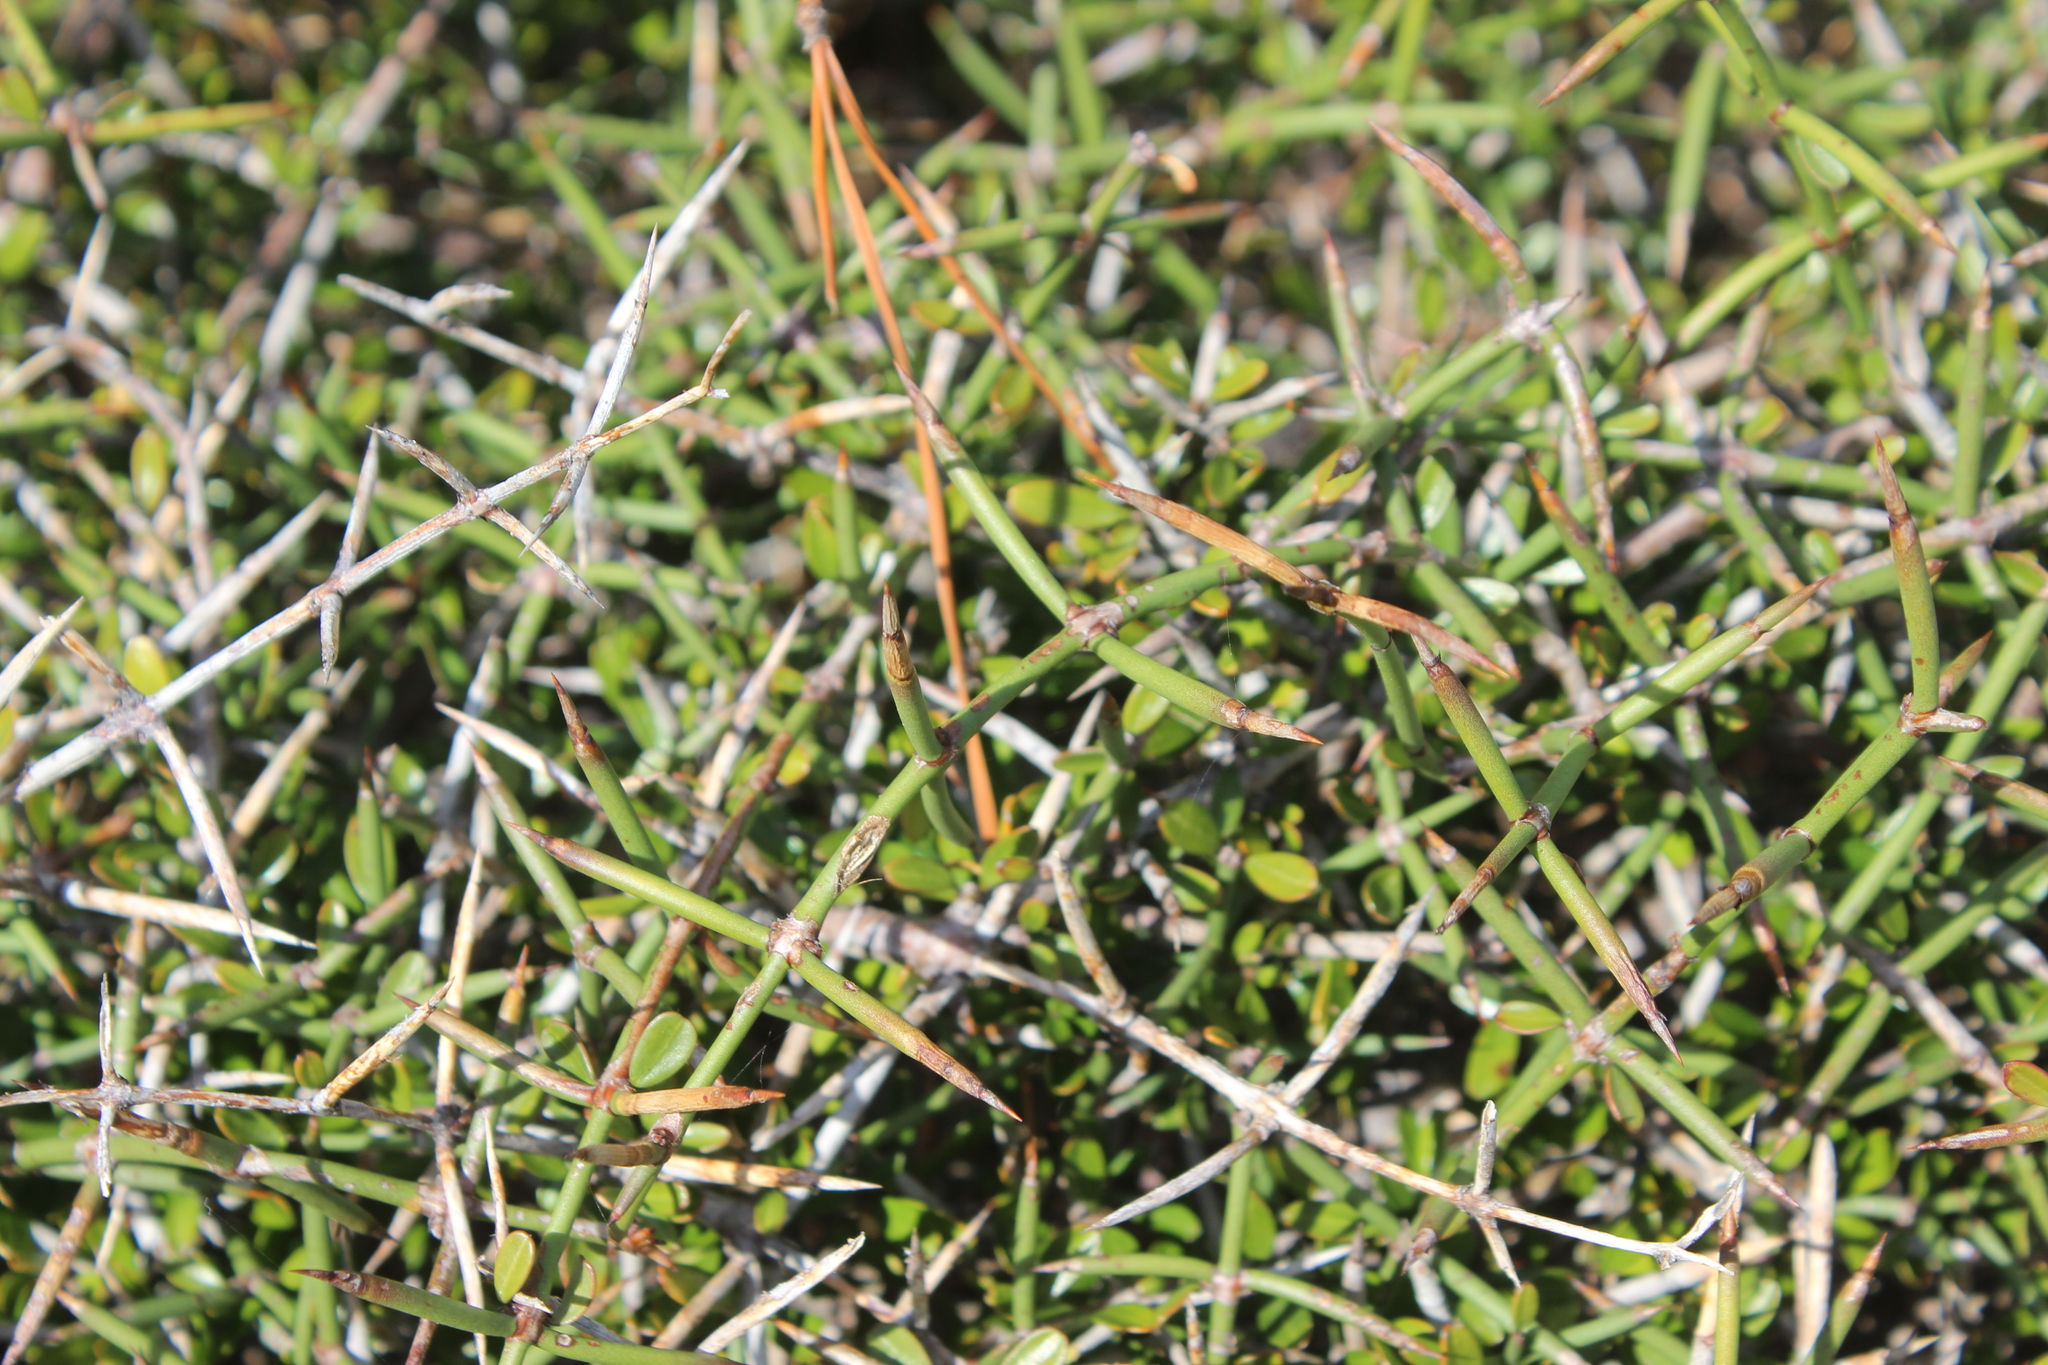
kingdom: Plantae
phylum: Tracheophyta
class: Magnoliopsida
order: Rosales
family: Rhamnaceae
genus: Discaria
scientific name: Discaria toumatou
